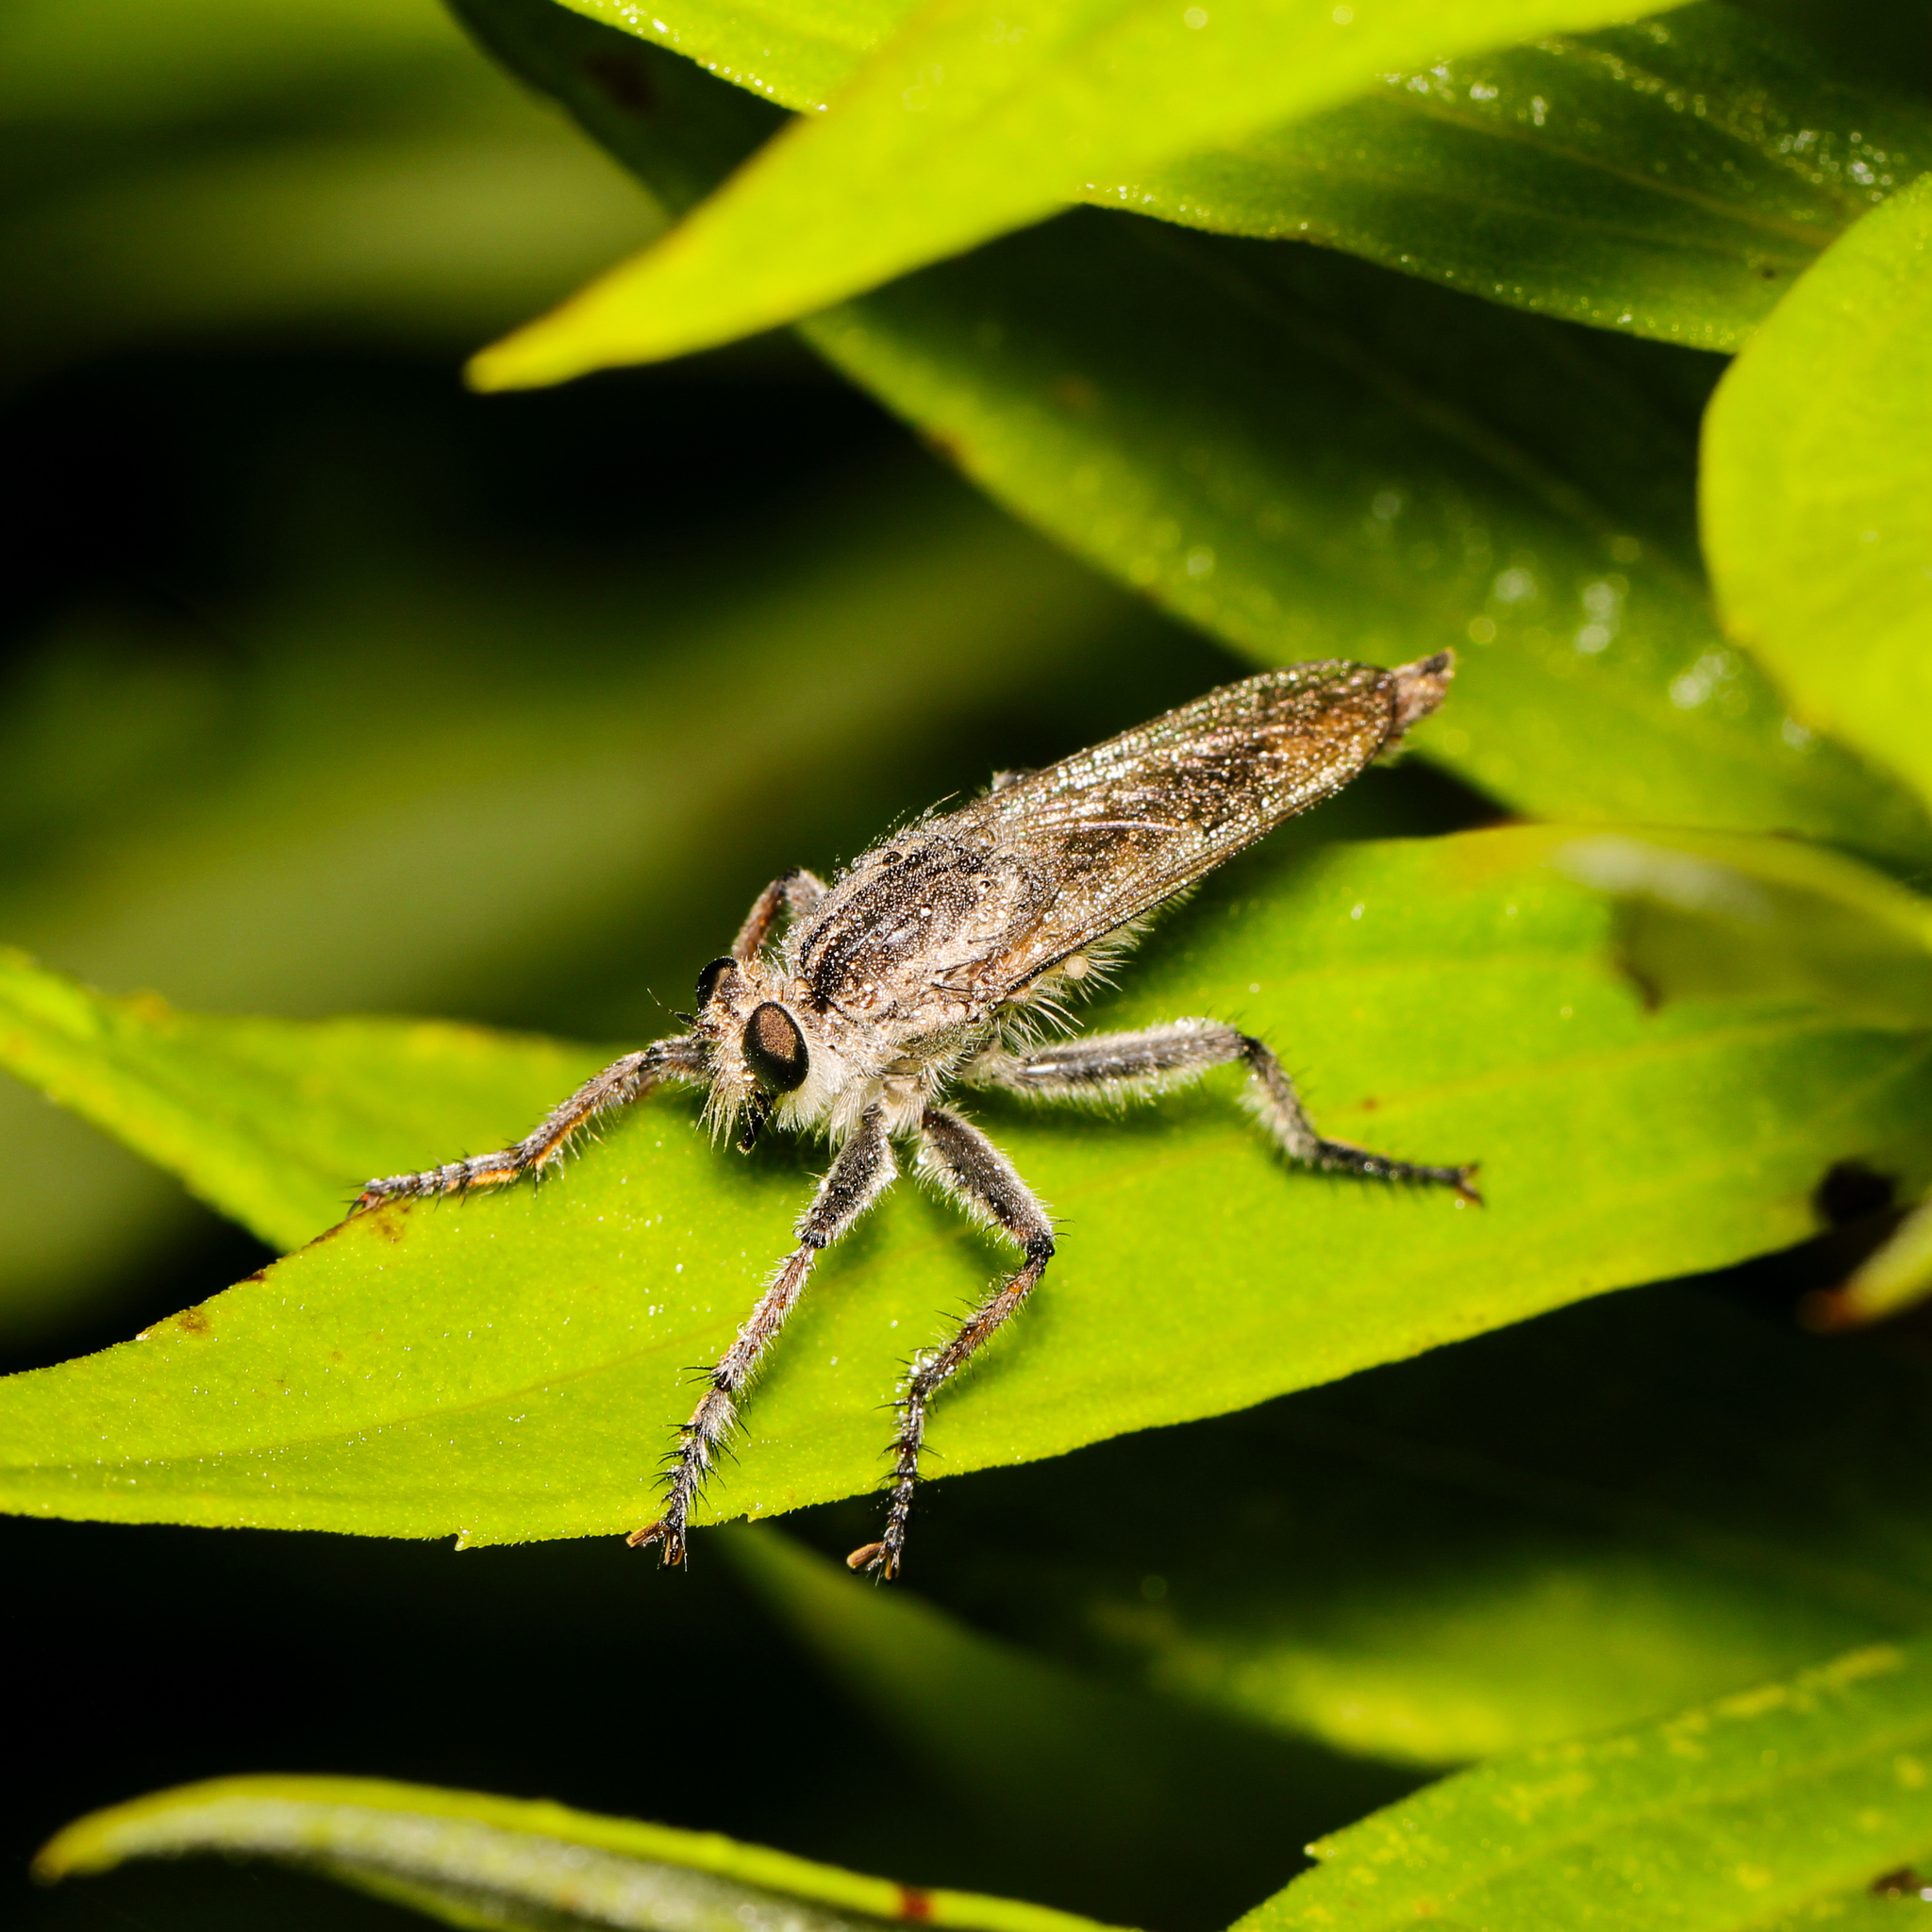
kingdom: Animalia
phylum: Arthropoda
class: Insecta
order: Diptera
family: Asilidae
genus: Triorla
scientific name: Triorla interrupta
